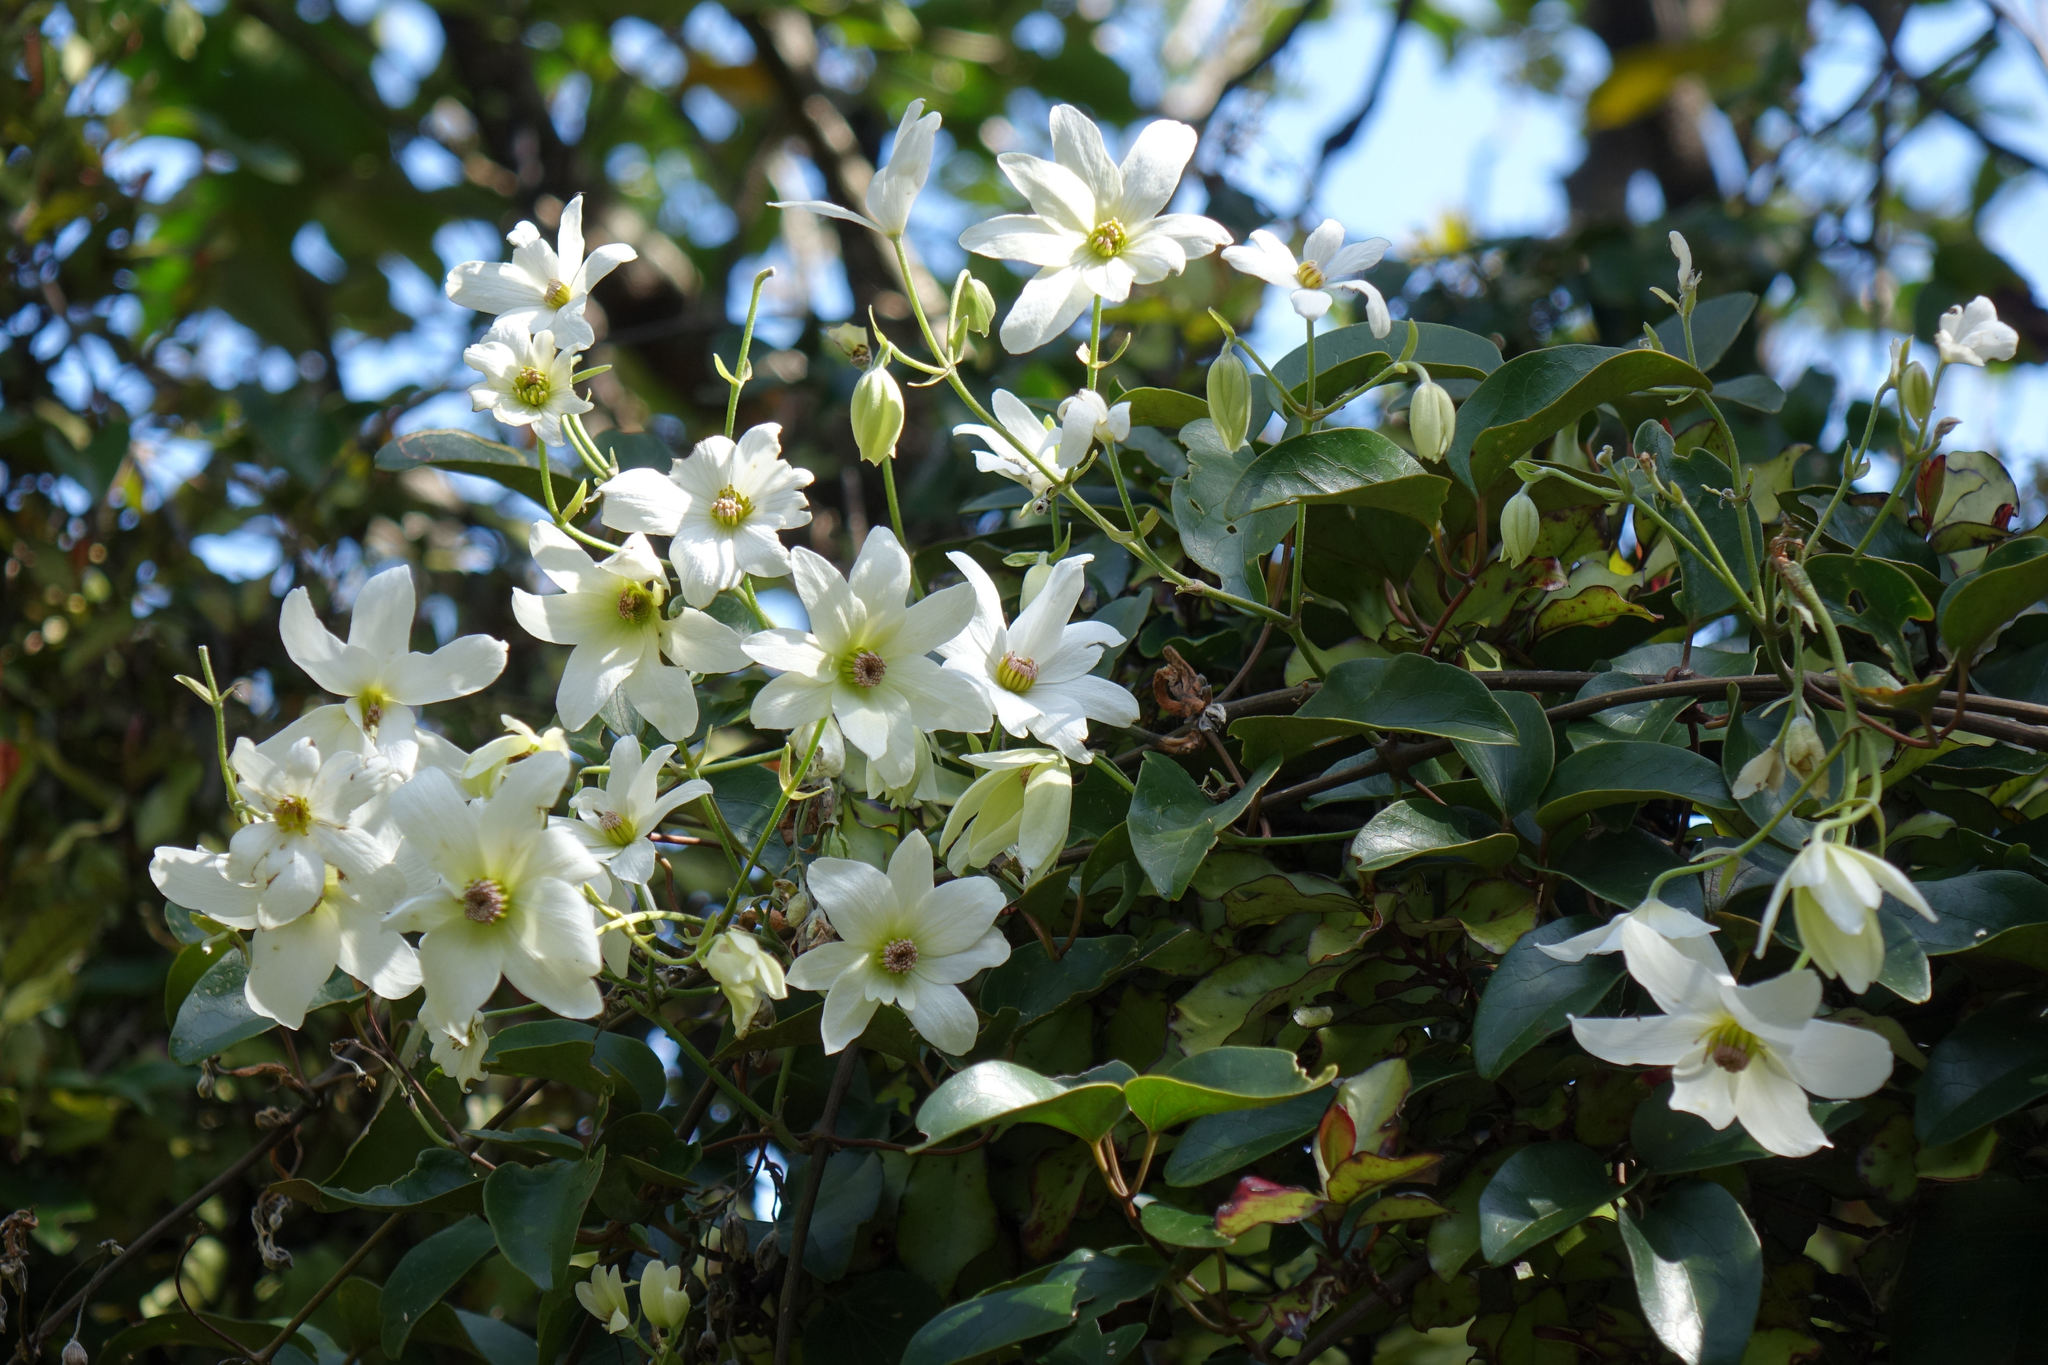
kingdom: Plantae
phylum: Tracheophyta
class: Magnoliopsida
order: Ranunculales
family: Ranunculaceae
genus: Clematis
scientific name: Clematis paniculata
